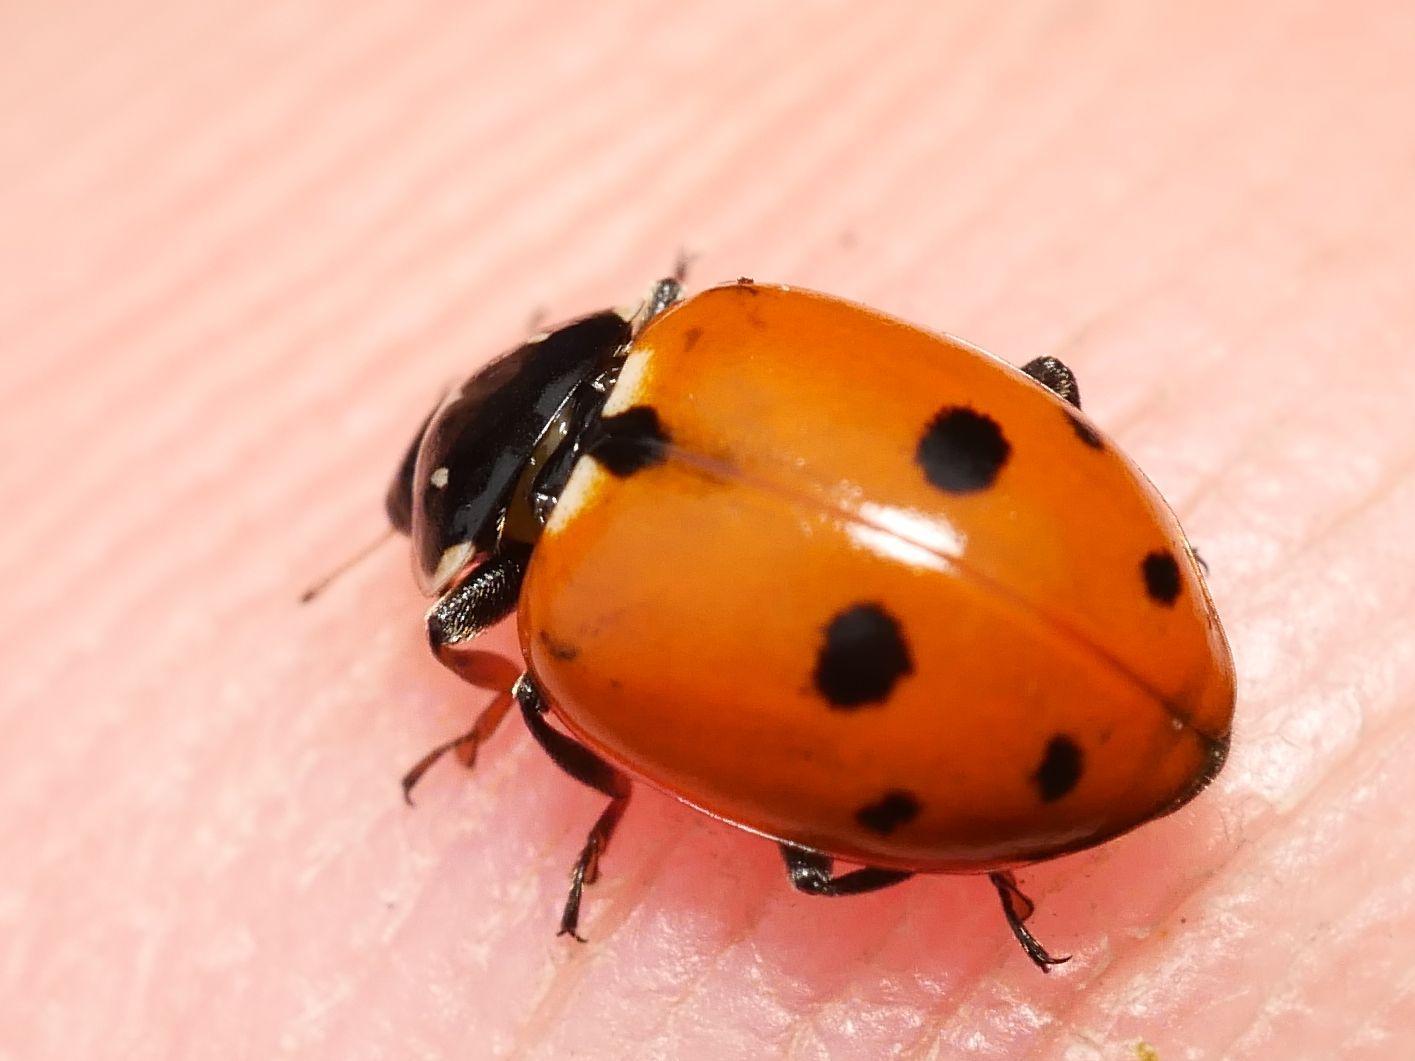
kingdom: Animalia
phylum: Arthropoda
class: Insecta
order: Coleoptera
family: Coccinellidae
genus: Hippodamia
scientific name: Hippodamia variegata
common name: Ladybird beetle
